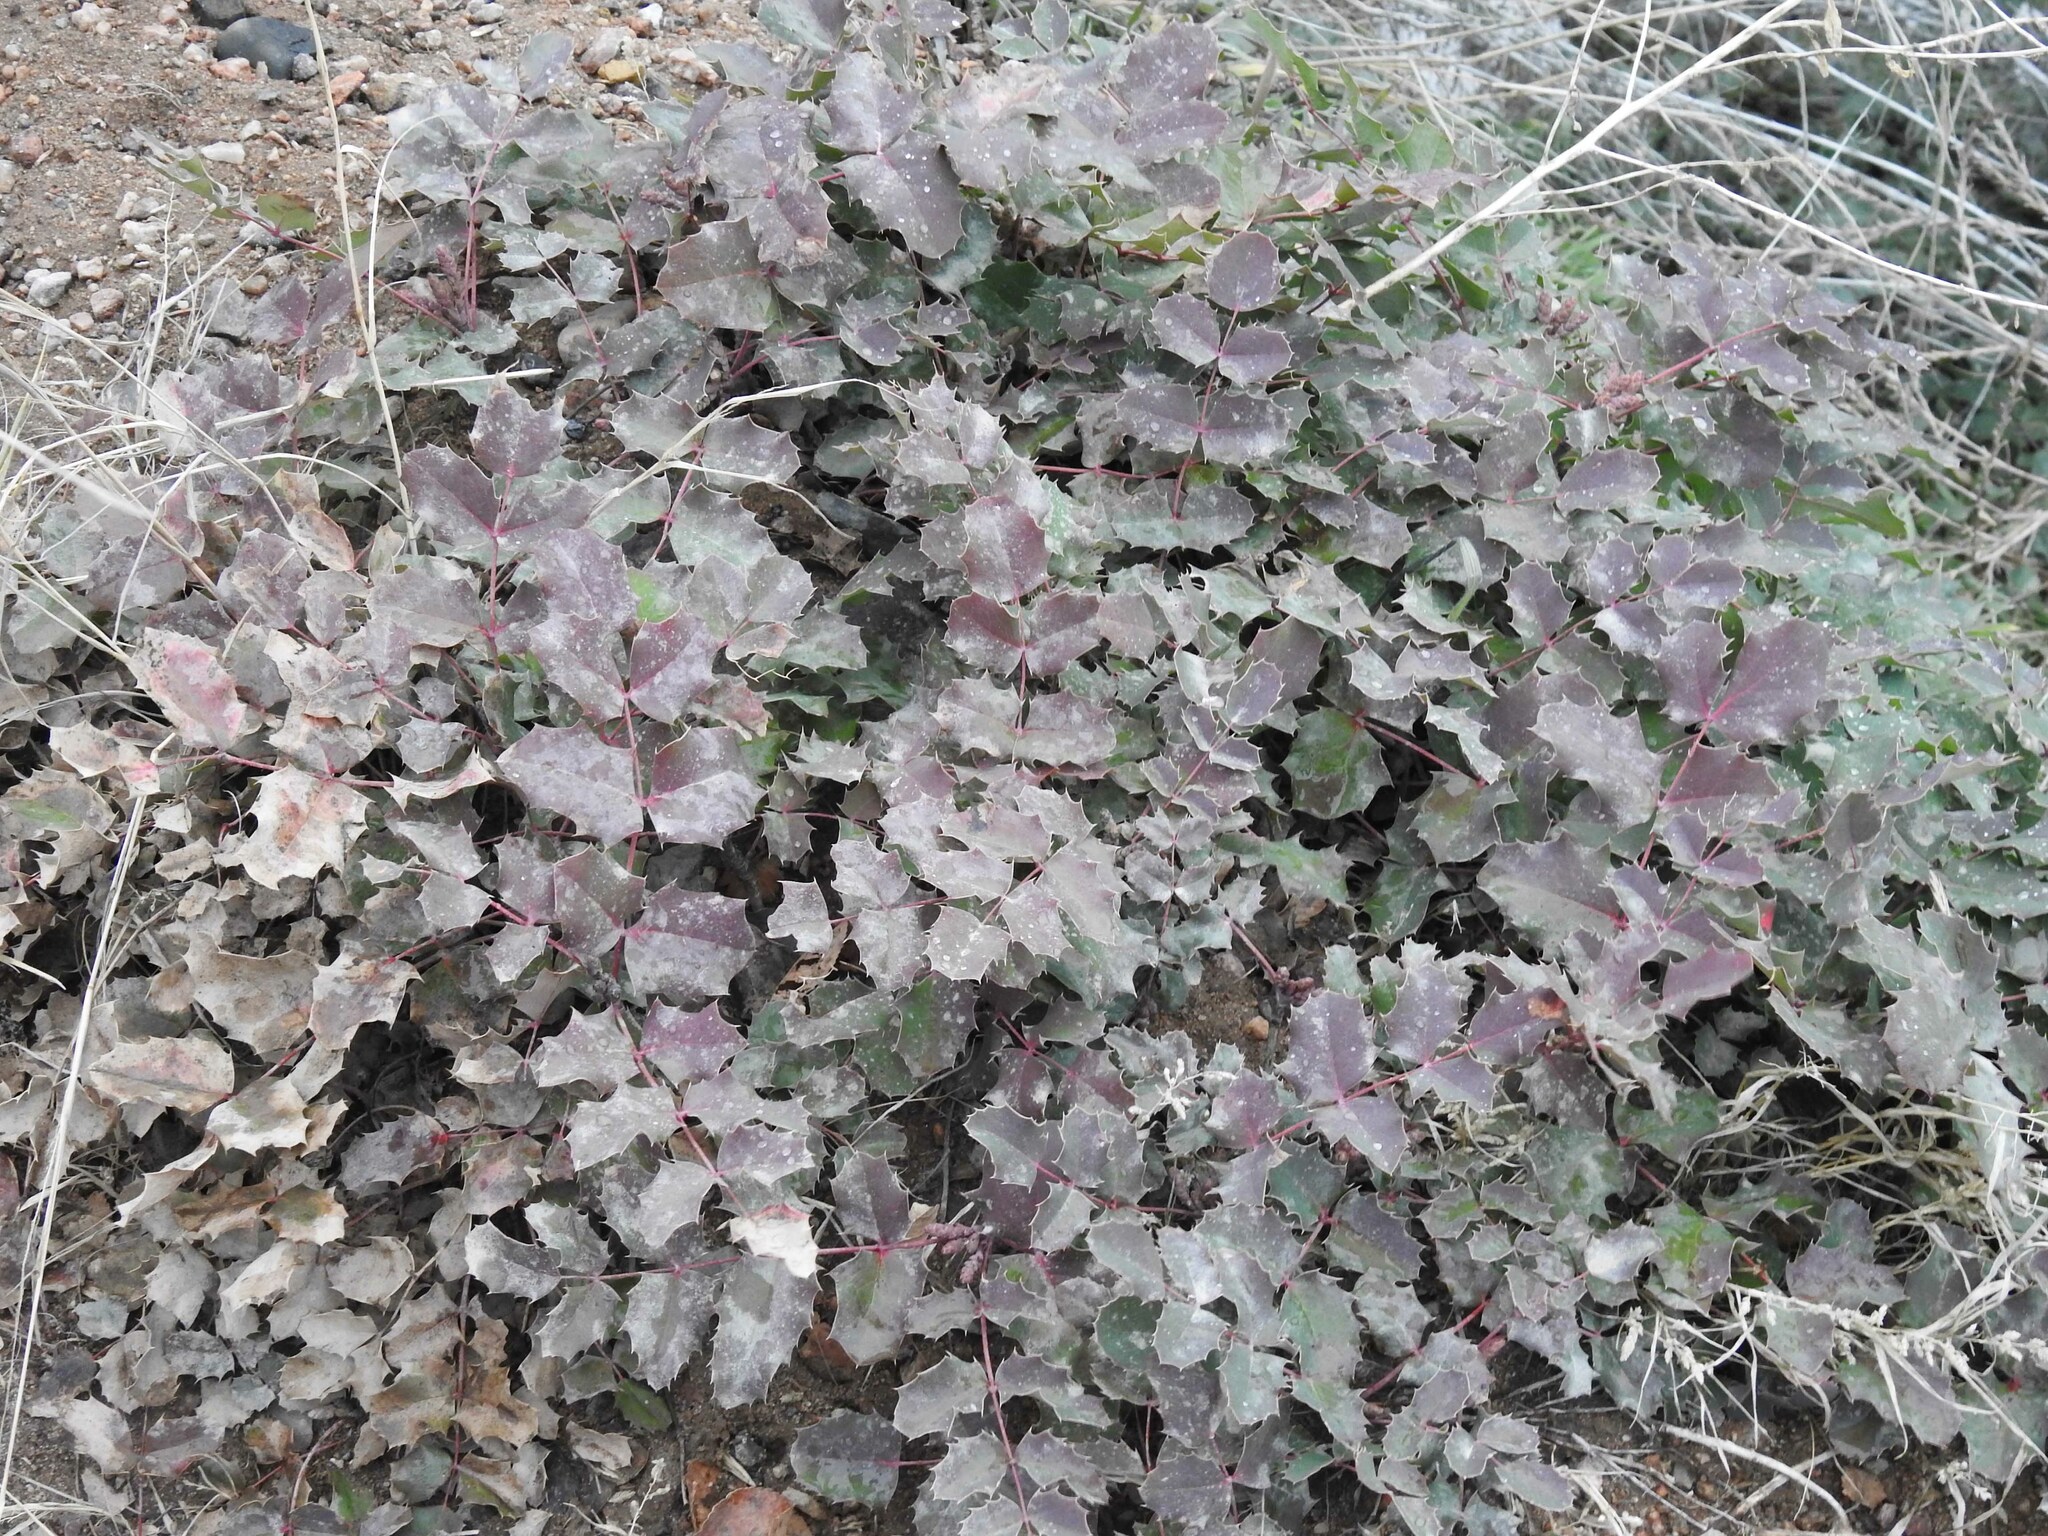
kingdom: Plantae
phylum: Tracheophyta
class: Magnoliopsida
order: Ranunculales
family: Berberidaceae
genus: Mahonia
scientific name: Mahonia repens
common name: Creeping oregon-grape
